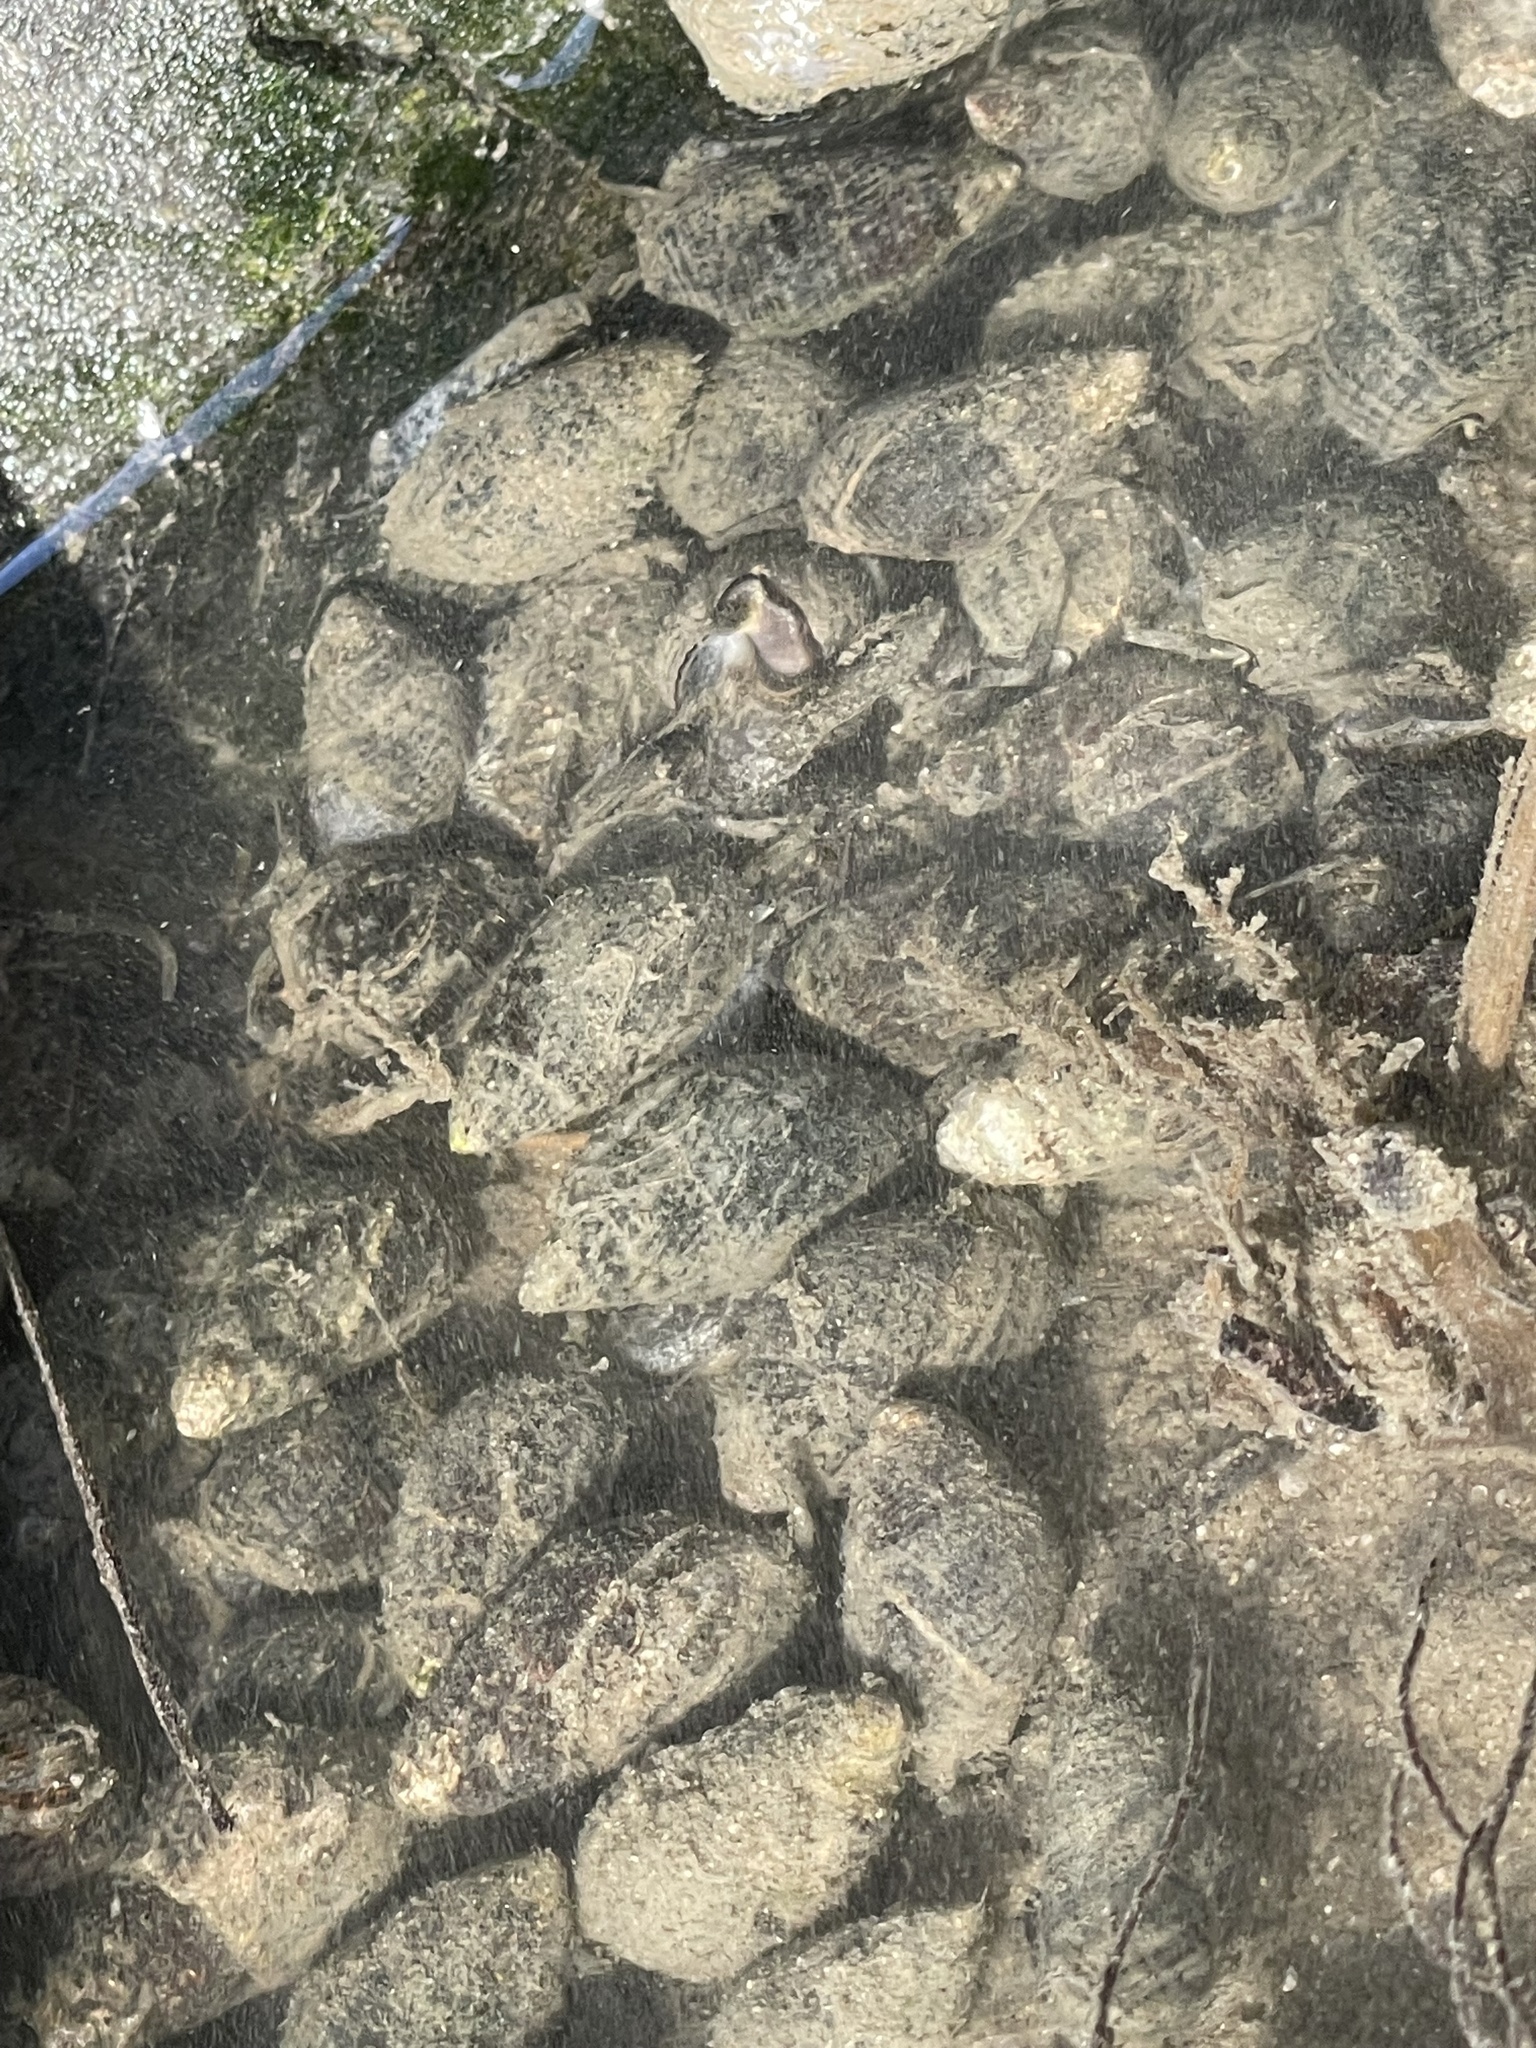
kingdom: Animalia
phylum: Mollusca
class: Gastropoda
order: Neogastropoda
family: Nassariidae
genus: Ilyanassa
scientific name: Ilyanassa obsoleta
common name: Eastern mudsnail
